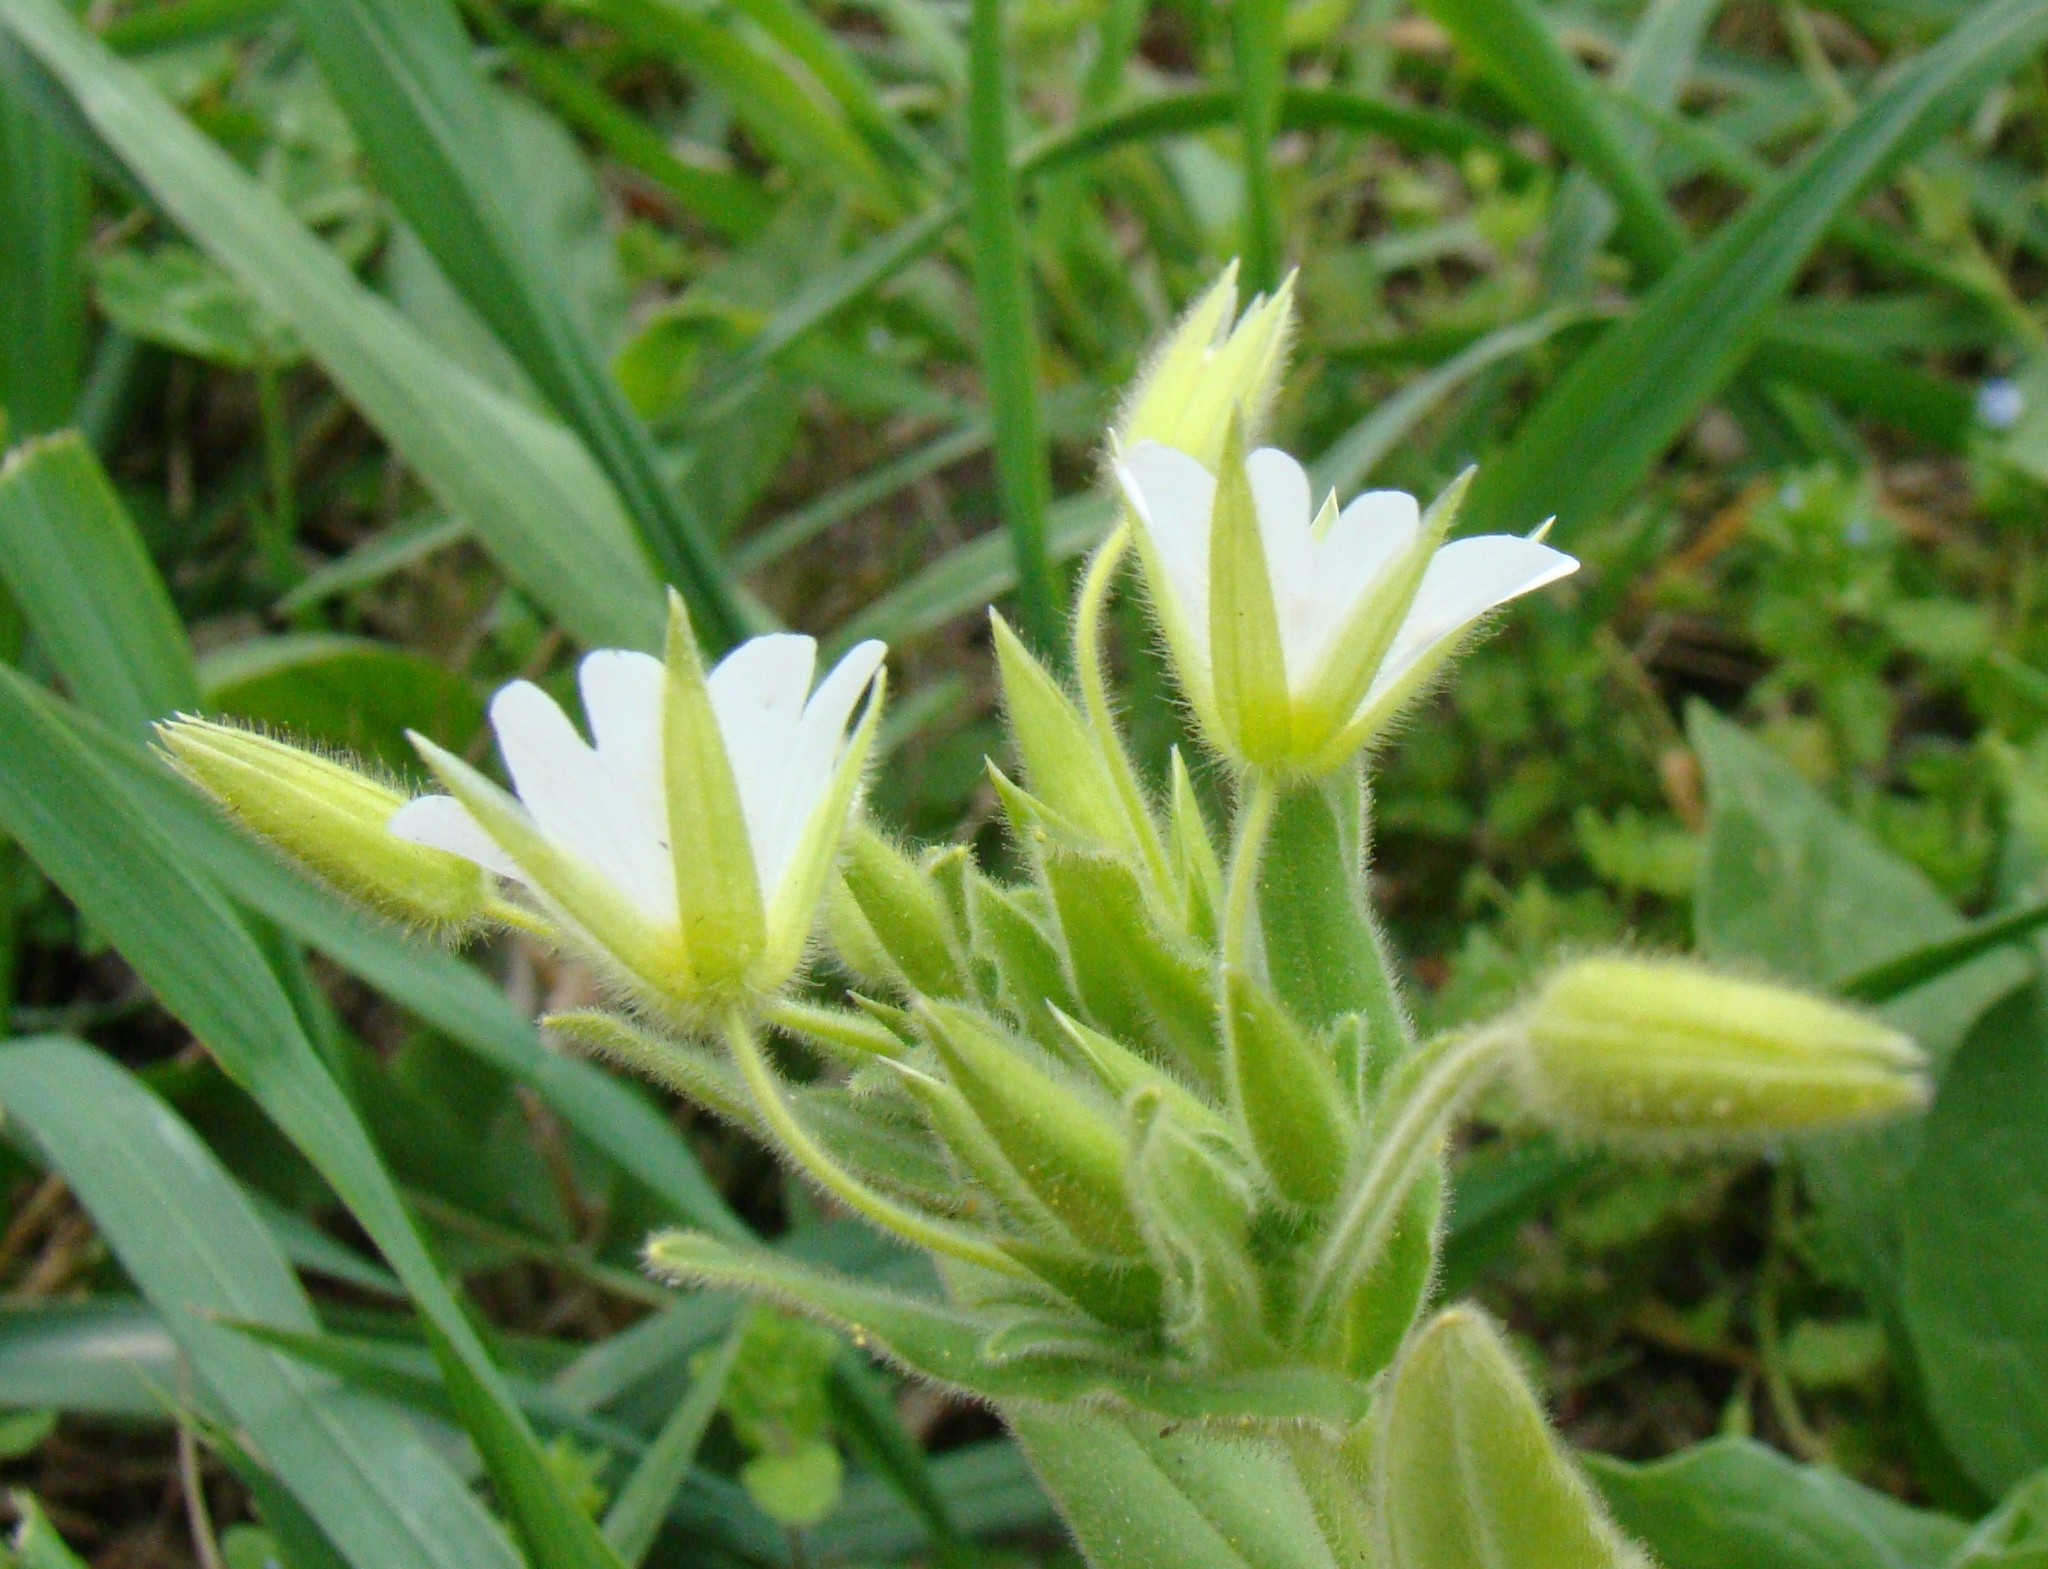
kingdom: Plantae
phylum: Tracheophyta
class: Magnoliopsida
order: Caryophyllales
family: Caryophyllaceae
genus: Cerastium
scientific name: Cerastium nemorale
